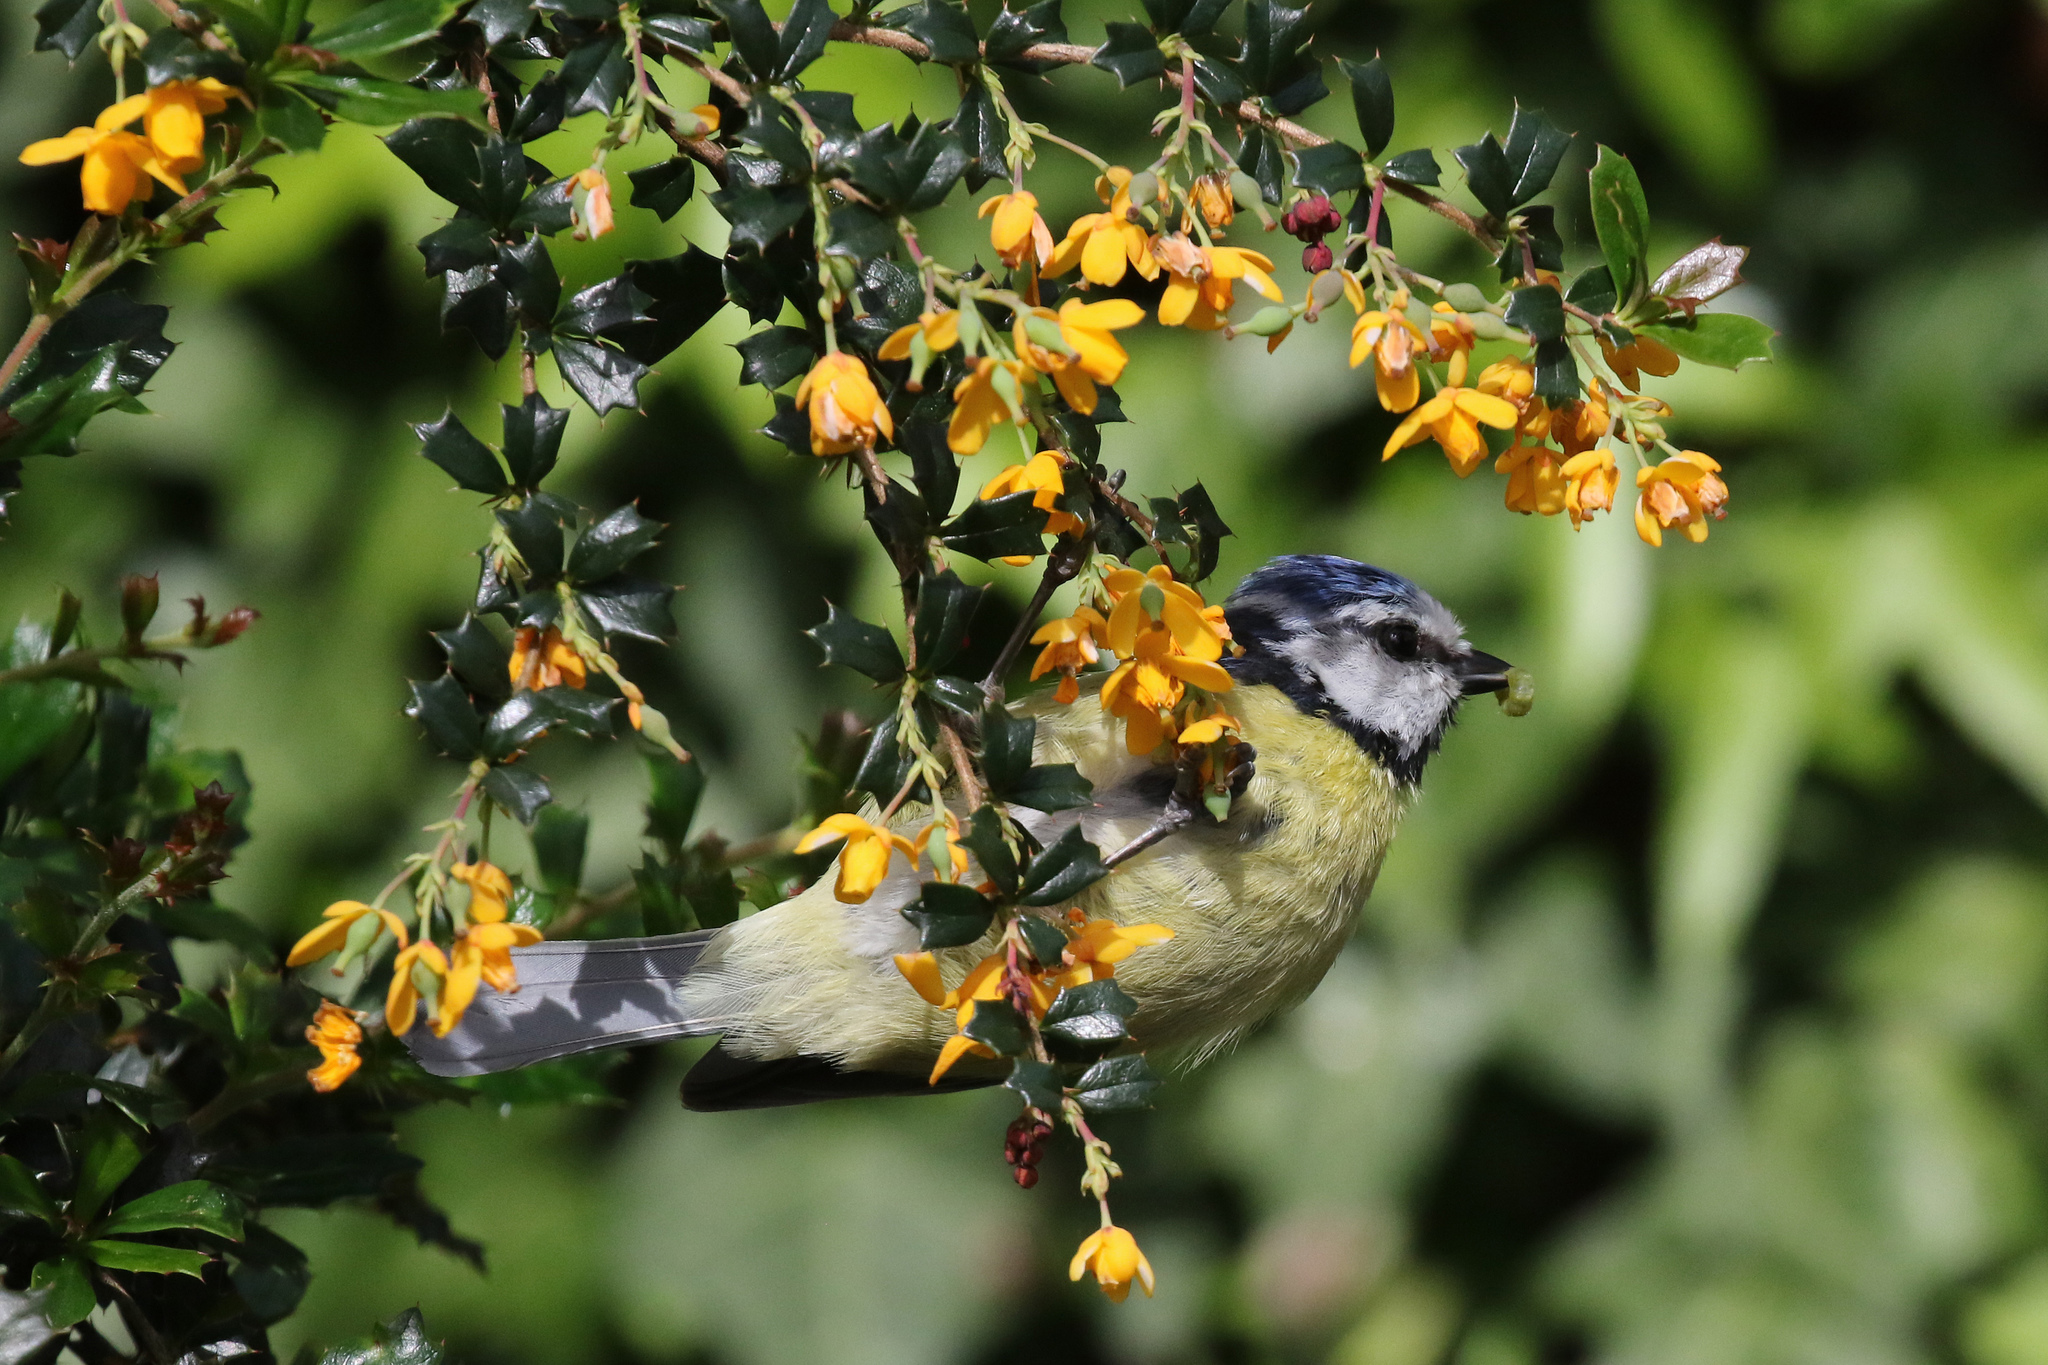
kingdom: Animalia
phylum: Chordata
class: Aves
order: Passeriformes
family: Paridae
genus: Cyanistes
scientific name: Cyanistes caeruleus
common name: Eurasian blue tit
